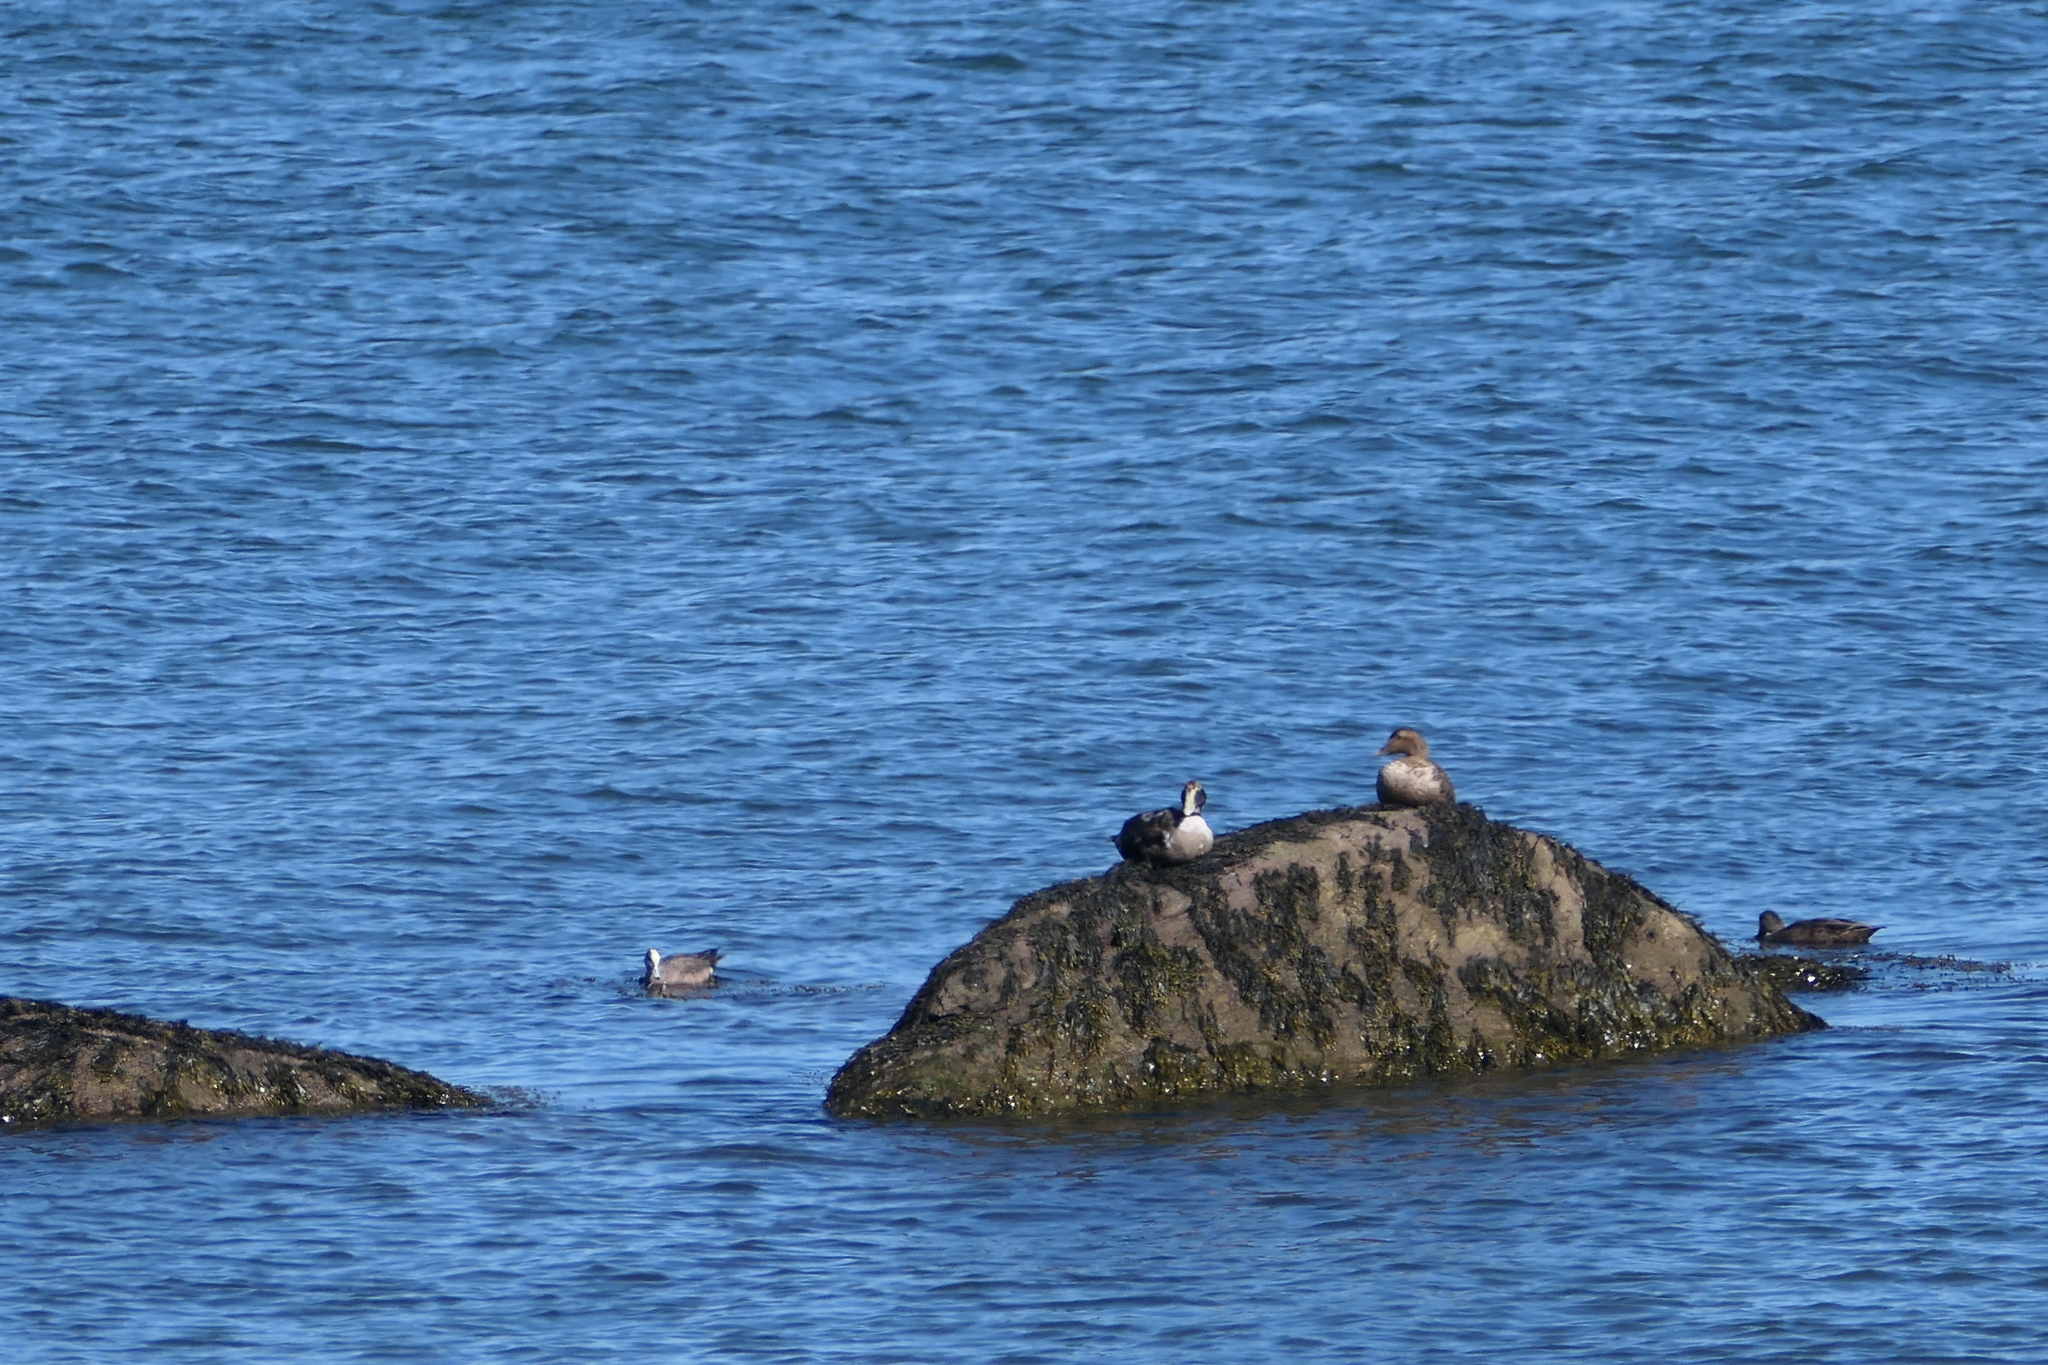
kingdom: Animalia
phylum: Chordata
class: Aves
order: Anseriformes
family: Anatidae
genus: Somateria
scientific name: Somateria mollissima
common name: Common eider
